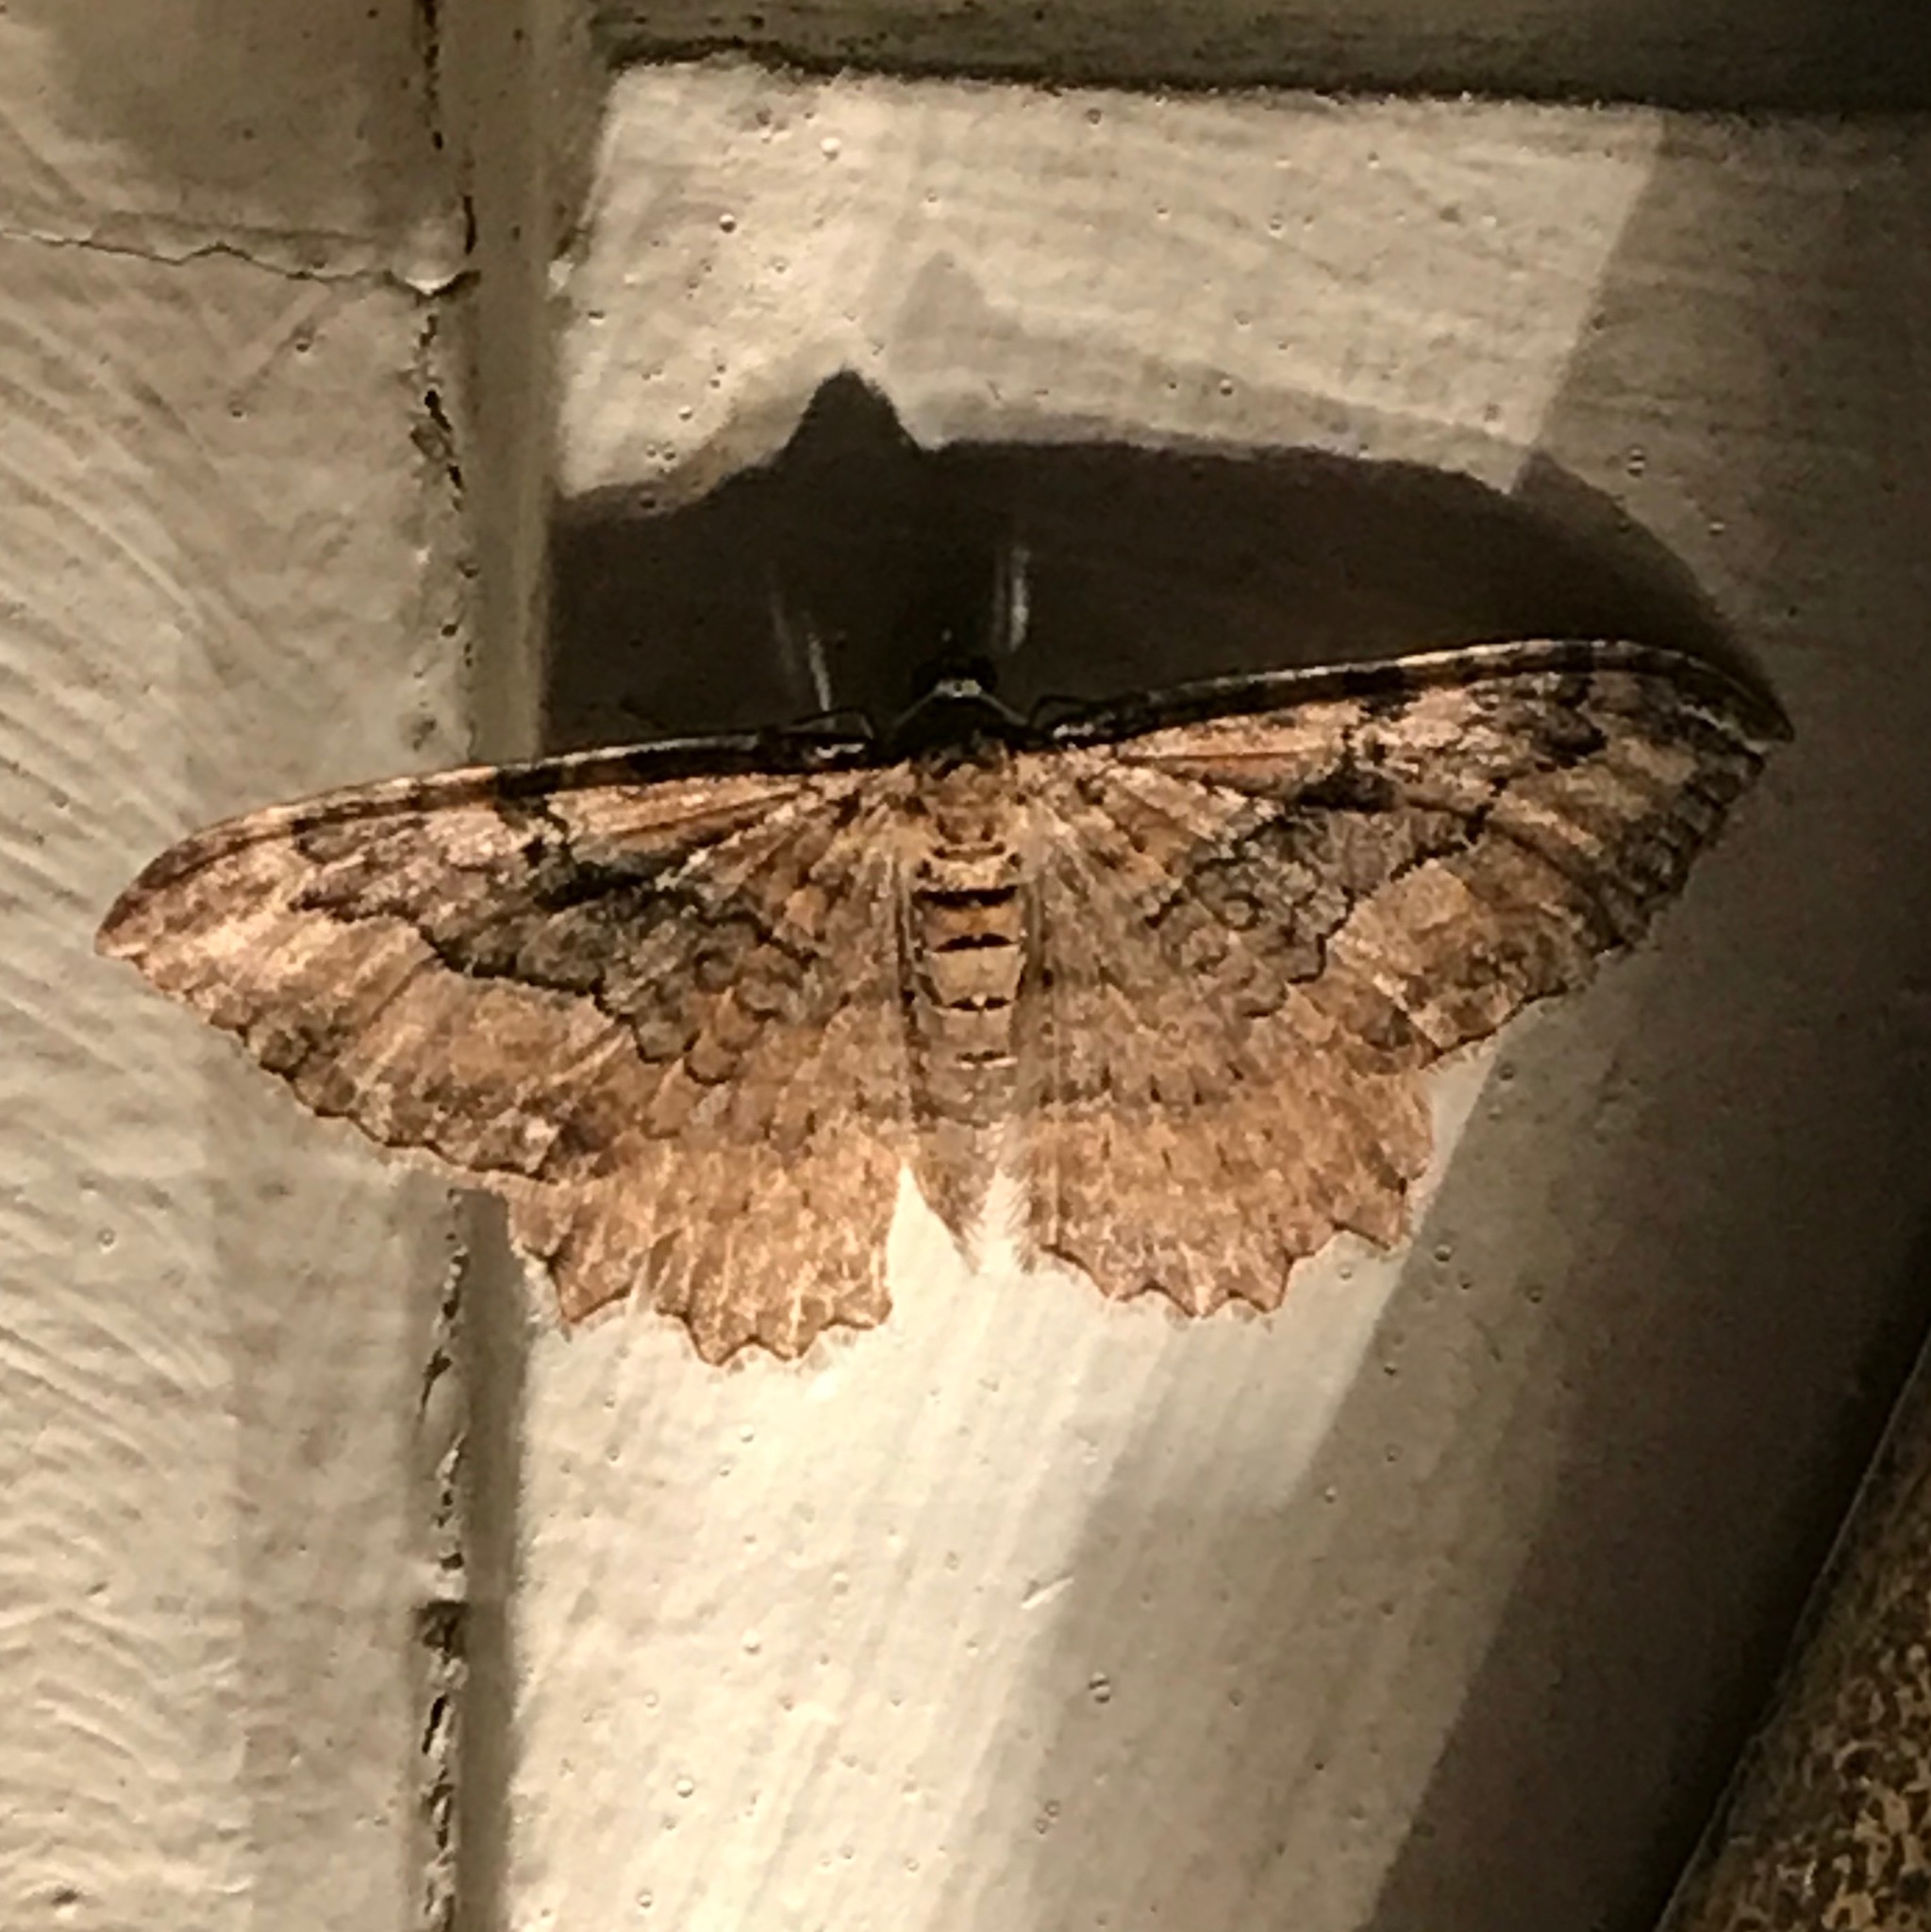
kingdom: Animalia
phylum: Arthropoda
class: Insecta
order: Lepidoptera
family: Geometridae
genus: Rheumaptera
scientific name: Rheumaptera
